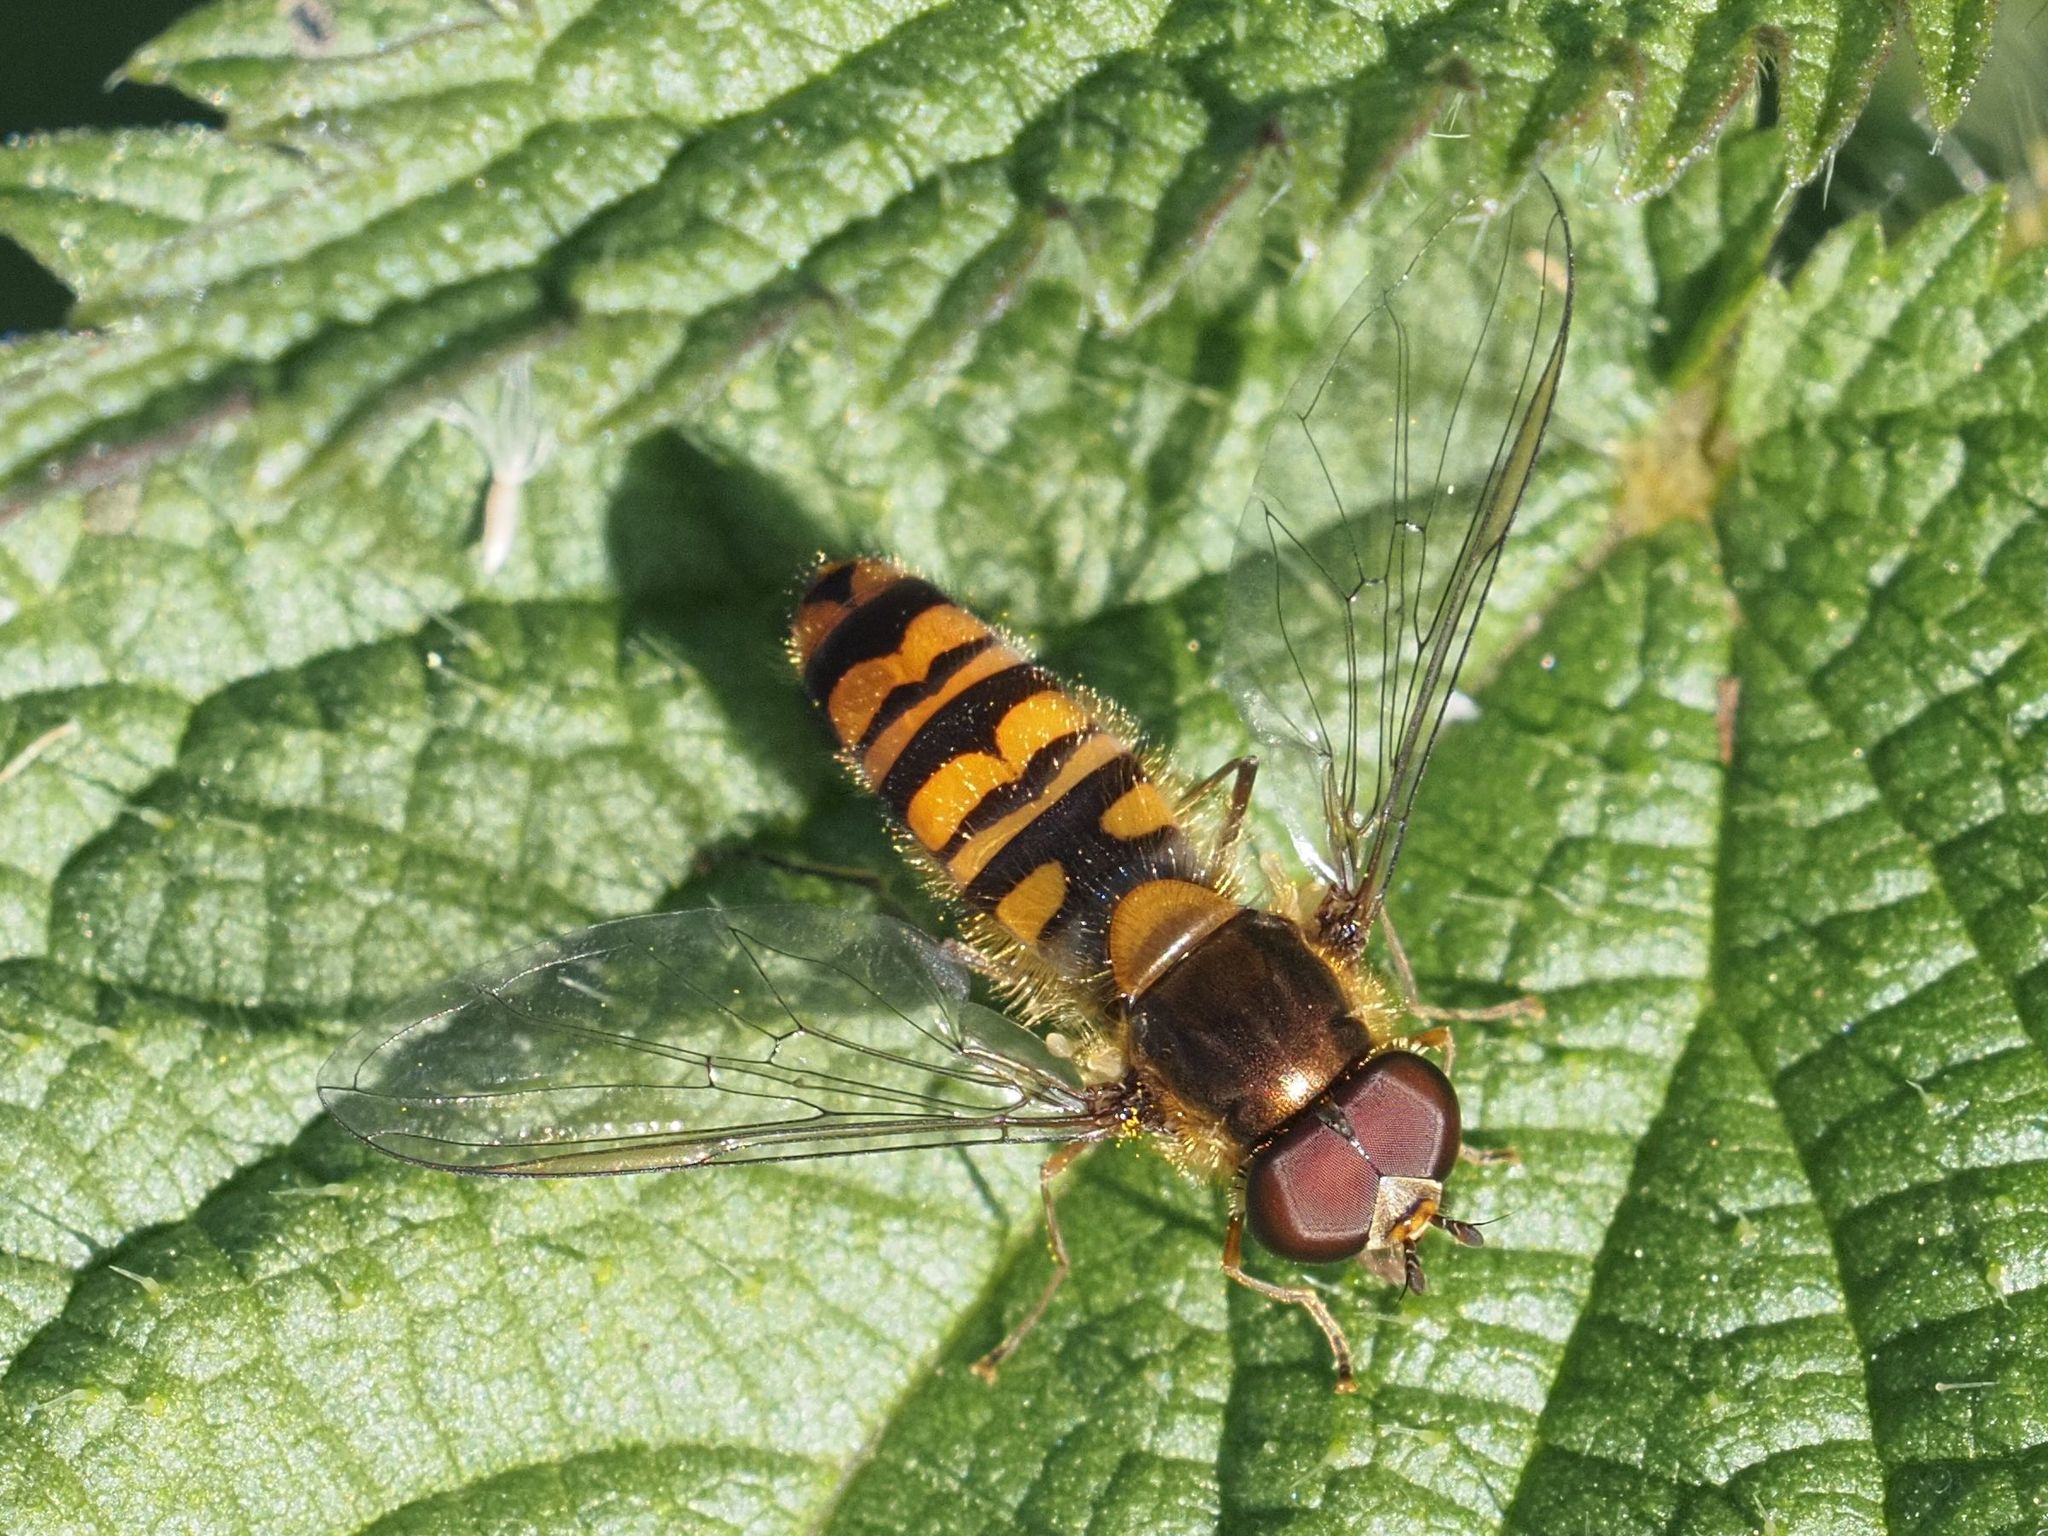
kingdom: Animalia
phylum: Arthropoda
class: Insecta
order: Diptera
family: Syrphidae
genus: Episyrphus
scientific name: Episyrphus balteatus
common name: Marmalade hoverfly
